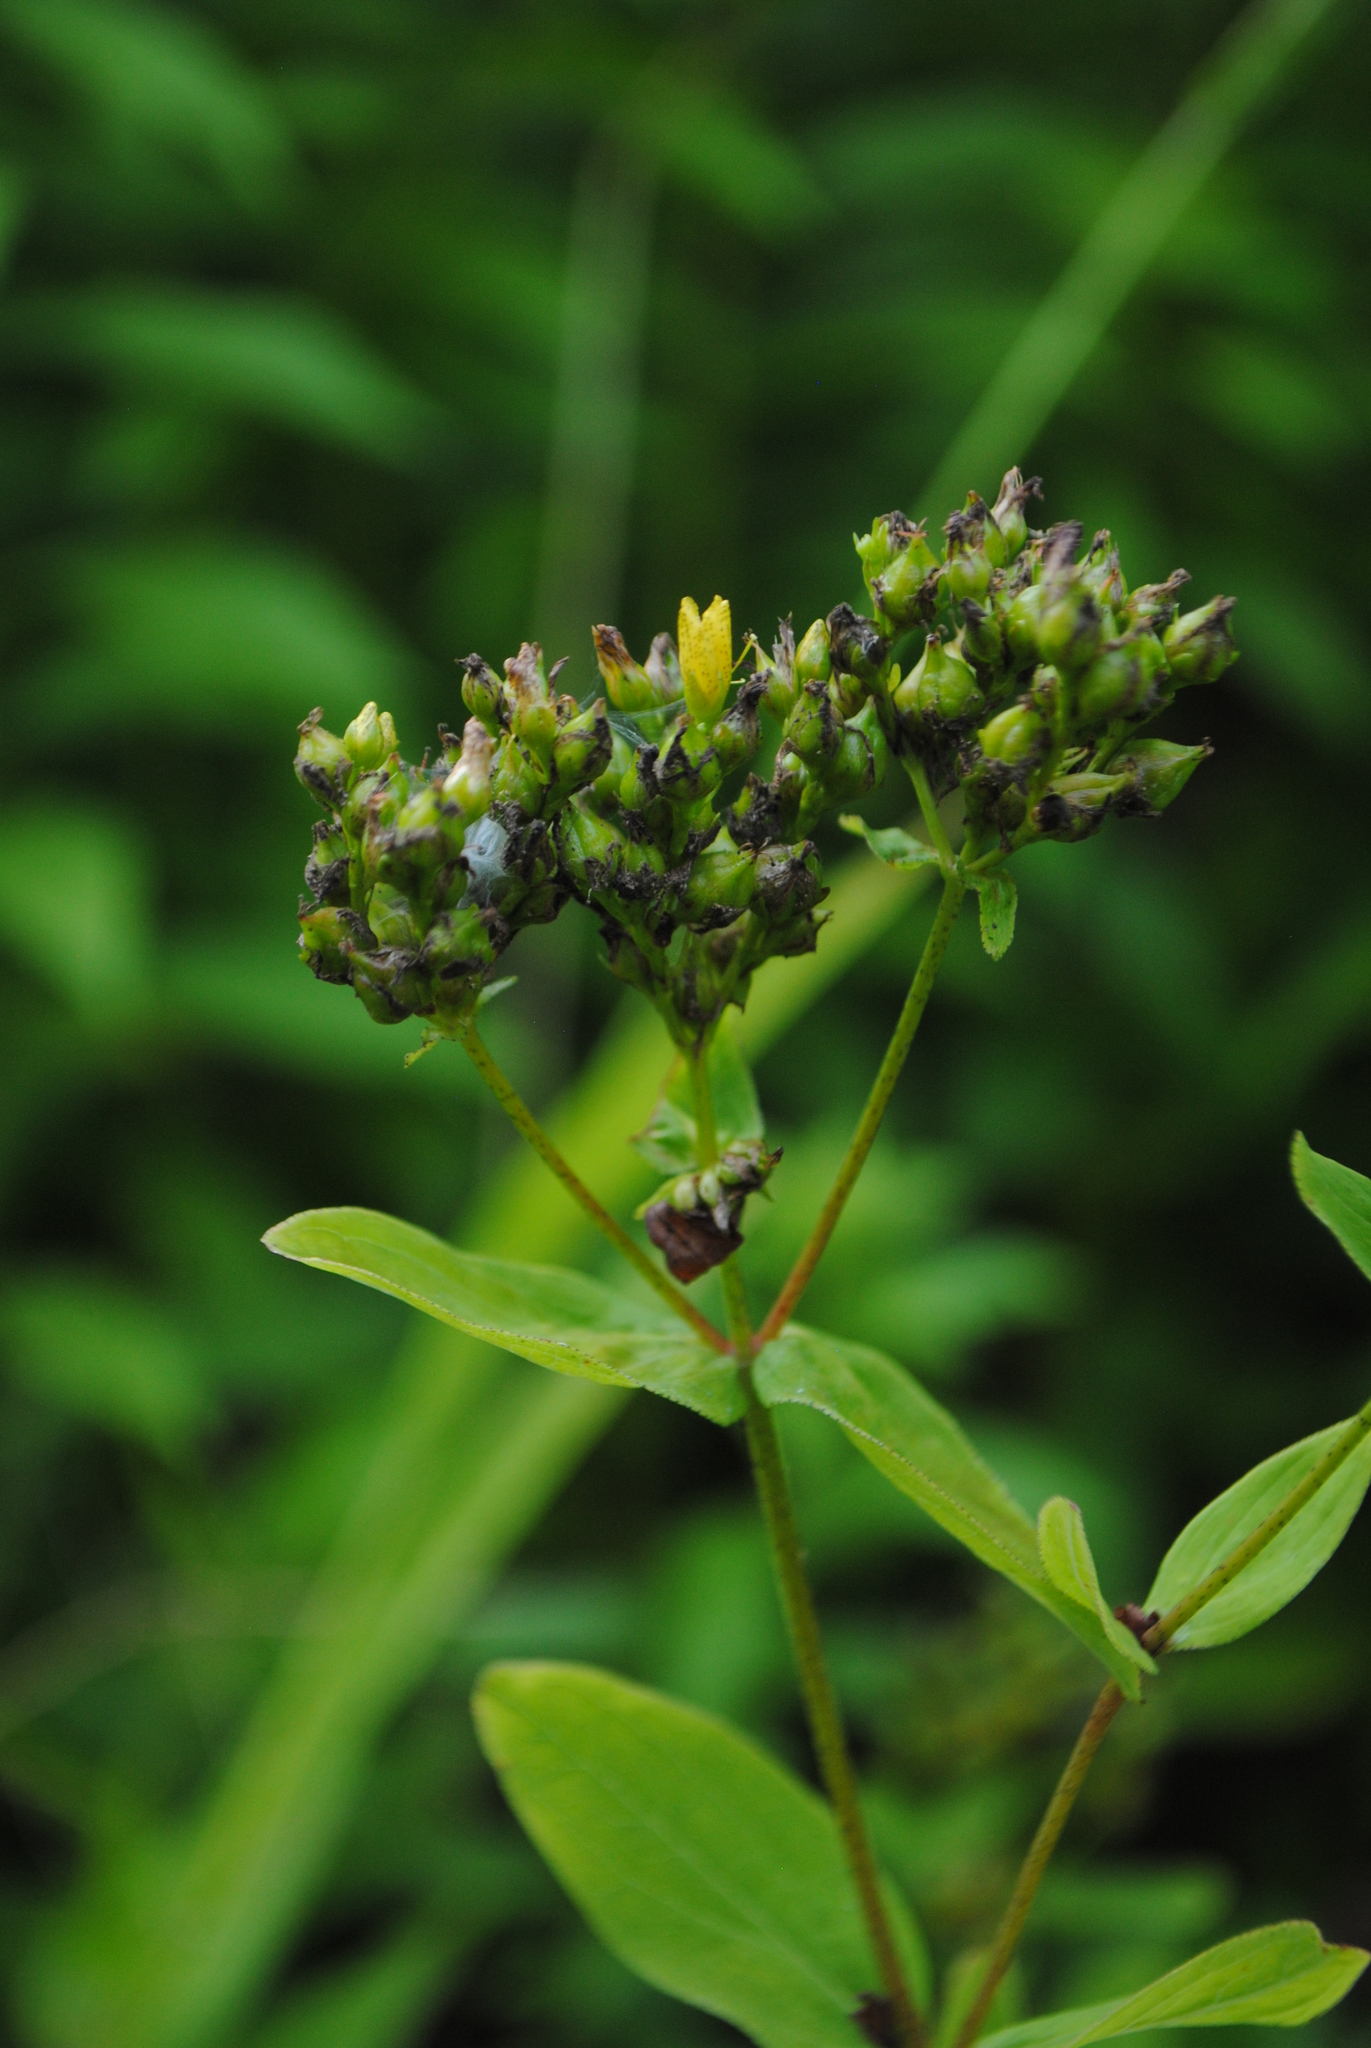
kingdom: Plantae
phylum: Tracheophyta
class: Magnoliopsida
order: Malpighiales
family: Hypericaceae
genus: Hypericum
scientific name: Hypericum punctatum
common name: Spotted st. john's-wort
